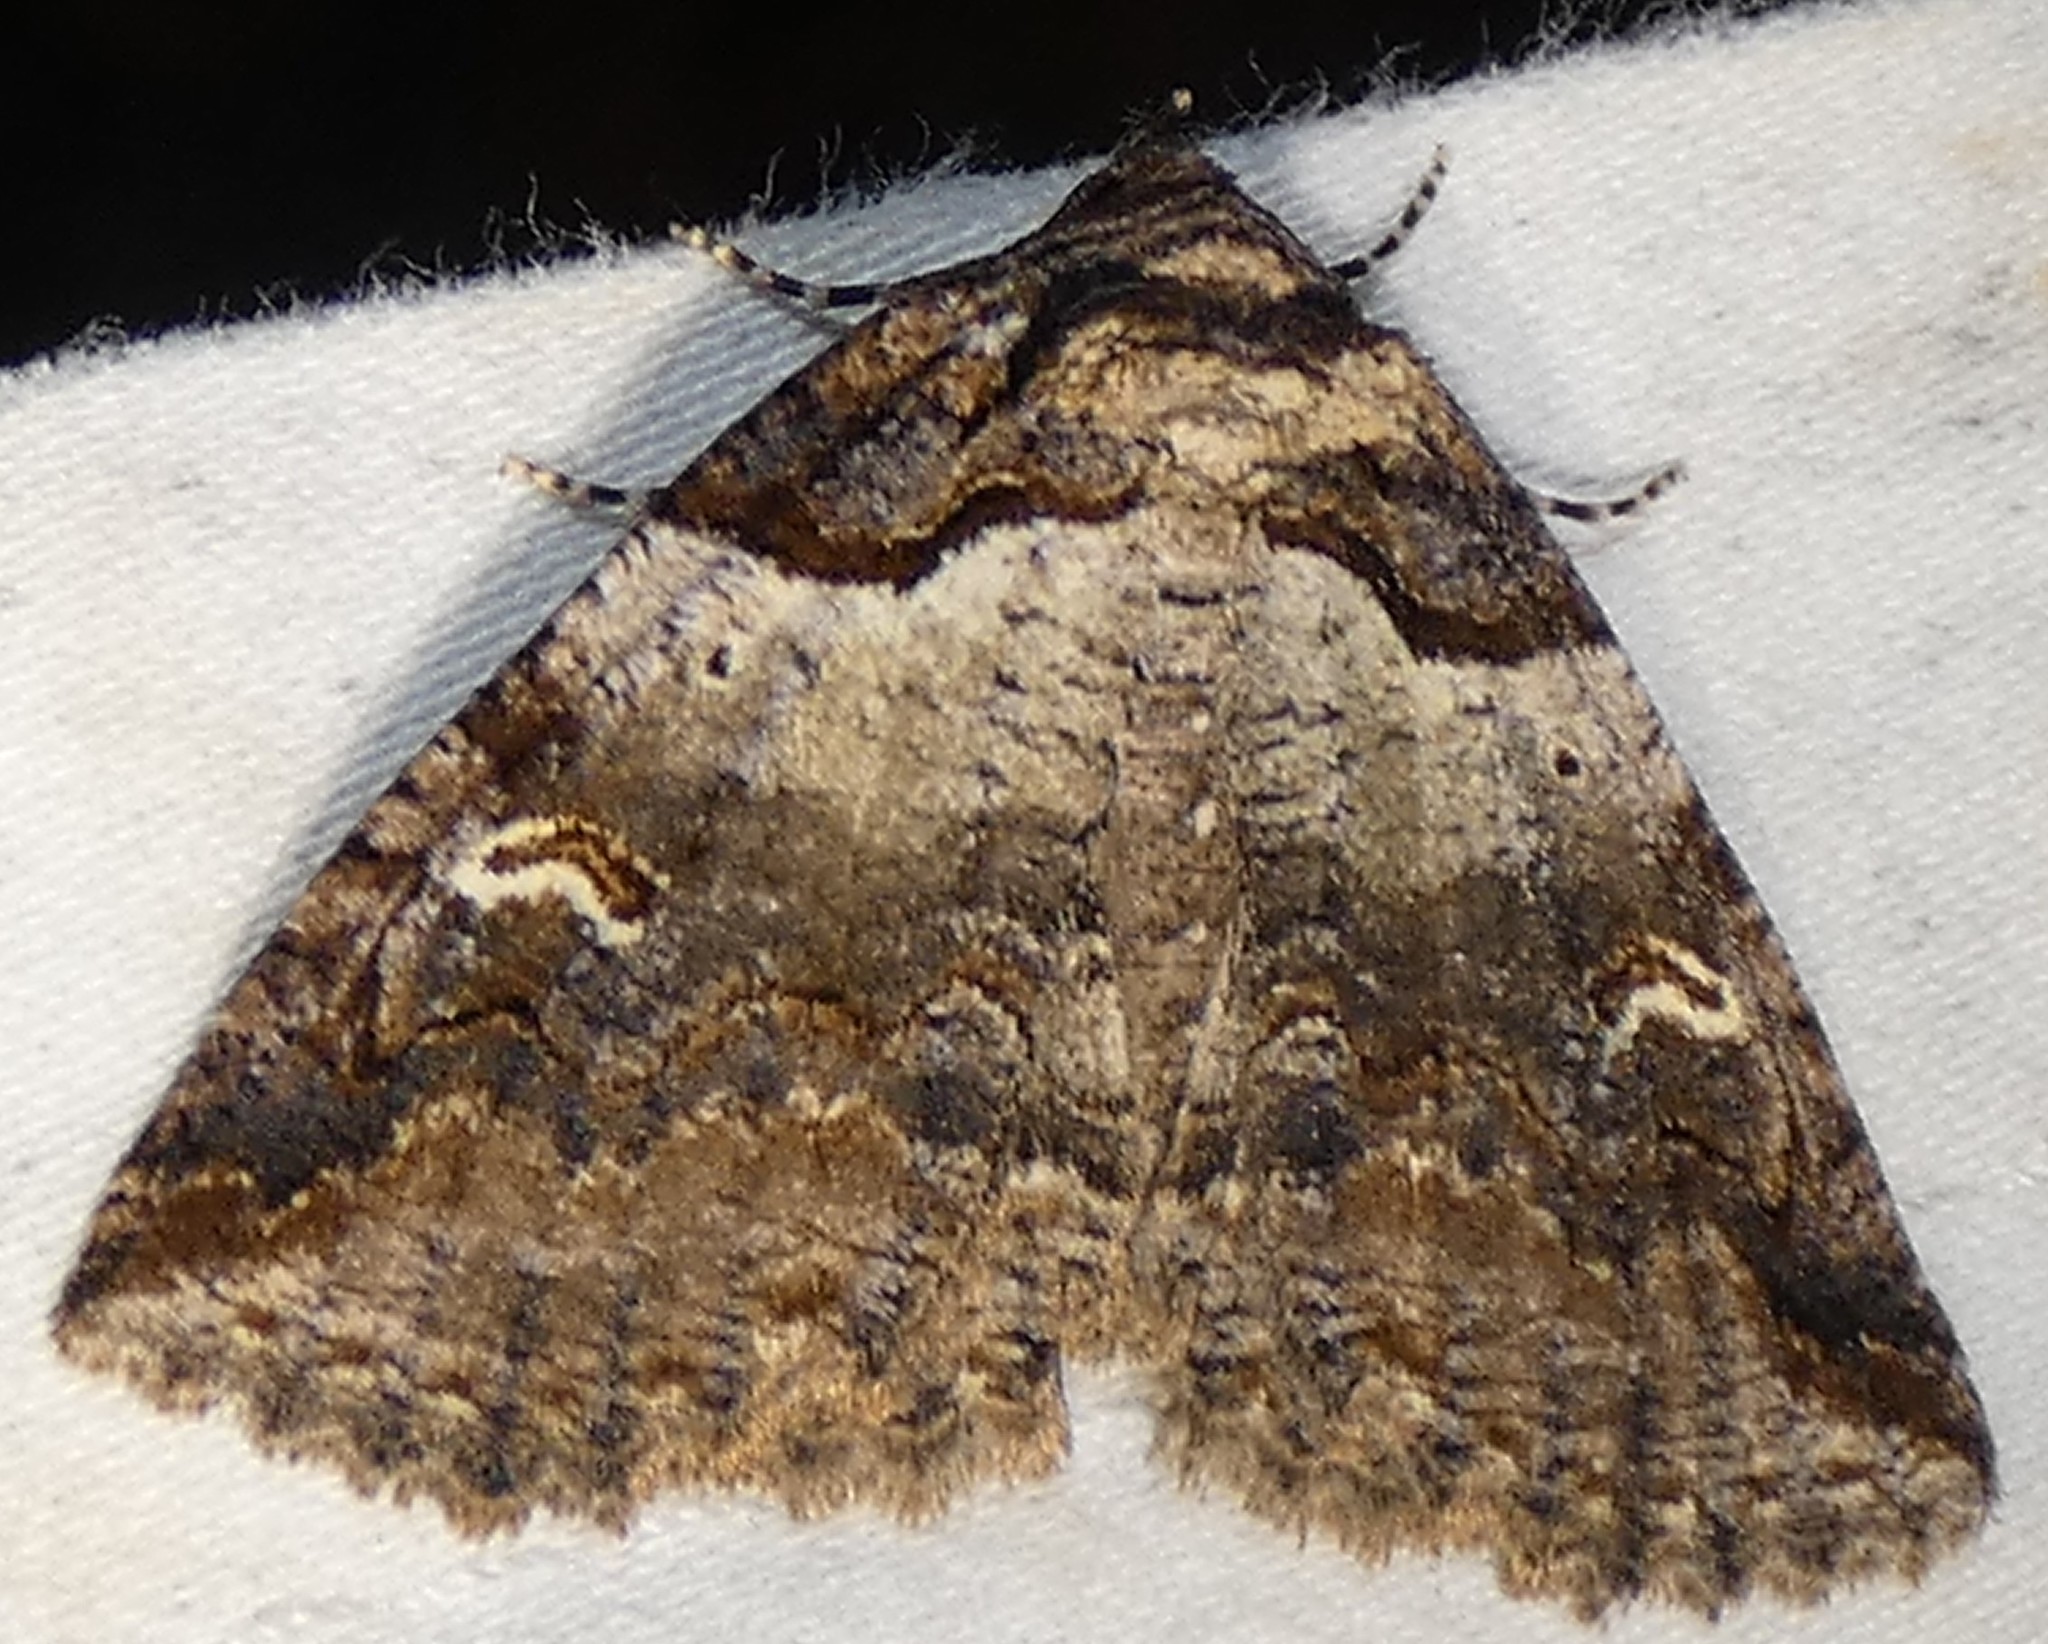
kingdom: Animalia
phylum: Arthropoda
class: Insecta
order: Lepidoptera
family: Erebidae
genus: Zale
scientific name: Zale intenta
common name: Intent zale moth
